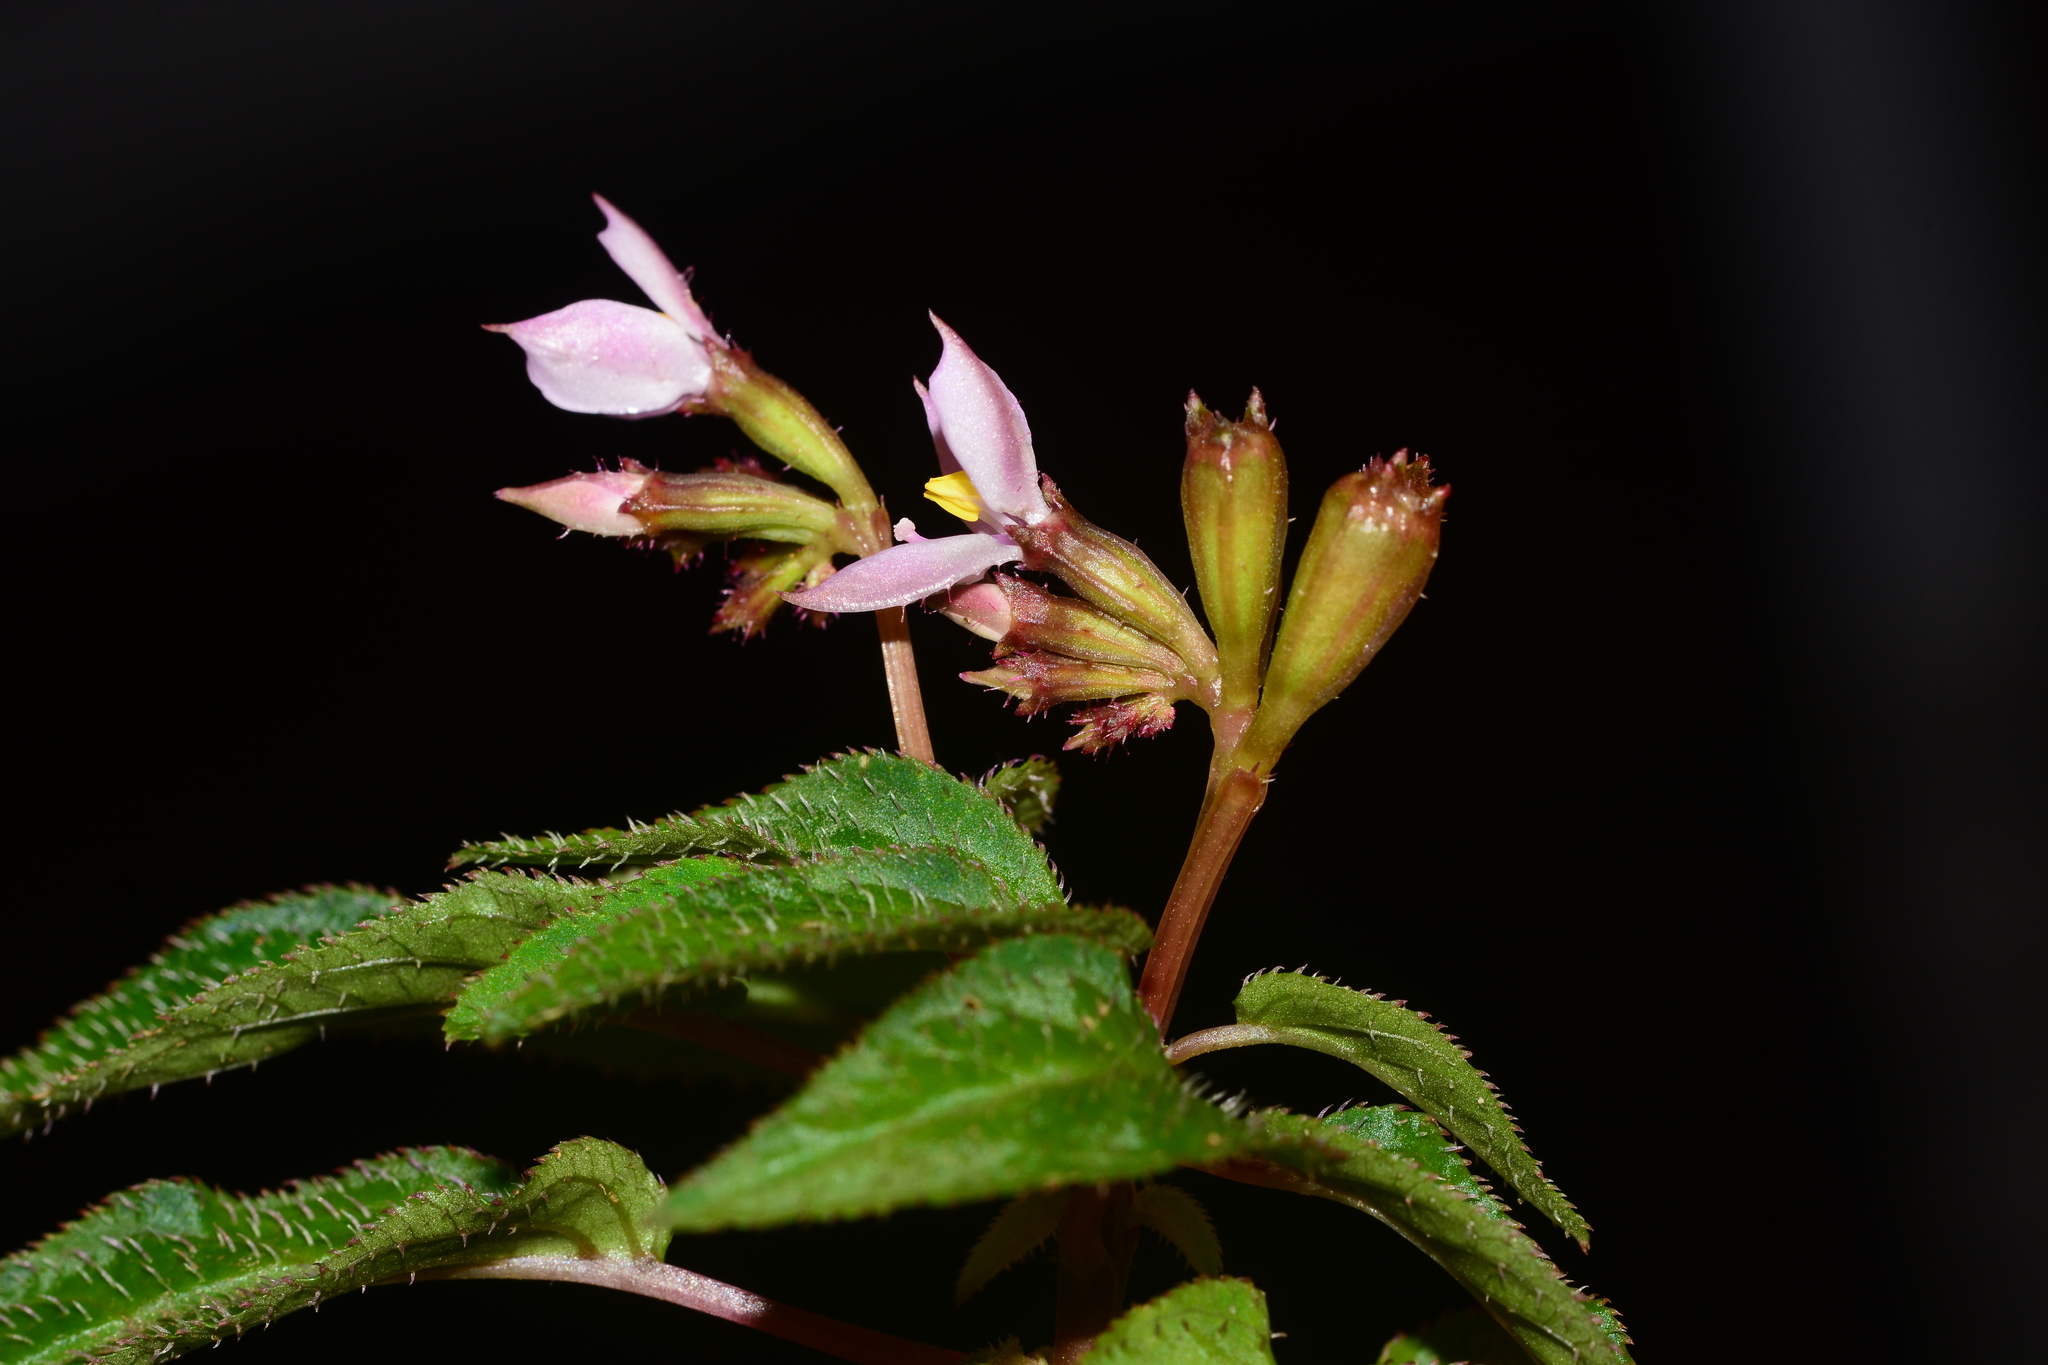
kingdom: Plantae
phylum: Tracheophyta
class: Magnoliopsida
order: Myrtales
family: Melastomataceae
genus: Sonerila
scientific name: Sonerila cannanorensis
